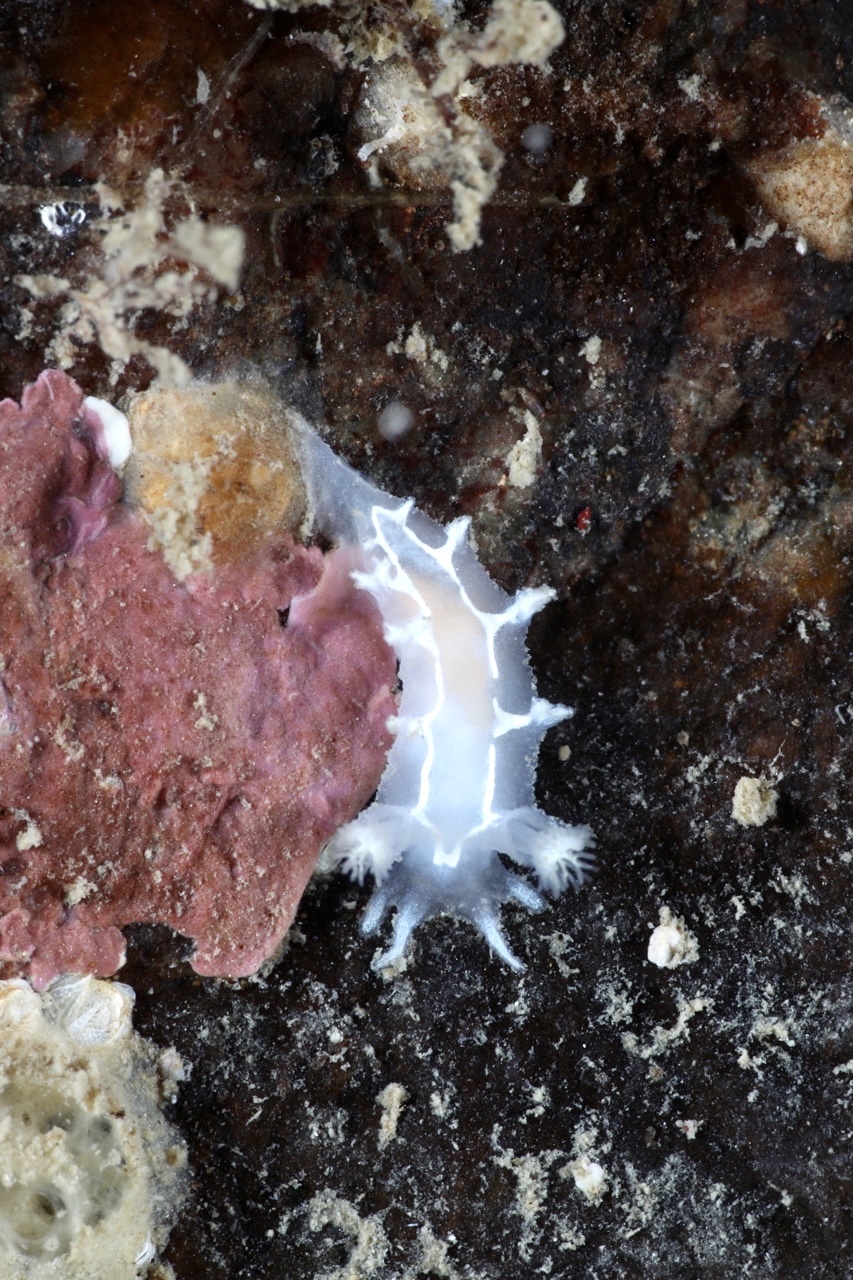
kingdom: Animalia
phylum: Mollusca
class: Gastropoda
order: Nudibranchia
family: Tritoniidae
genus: Duvaucelia
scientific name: Duvaucelia lineata
